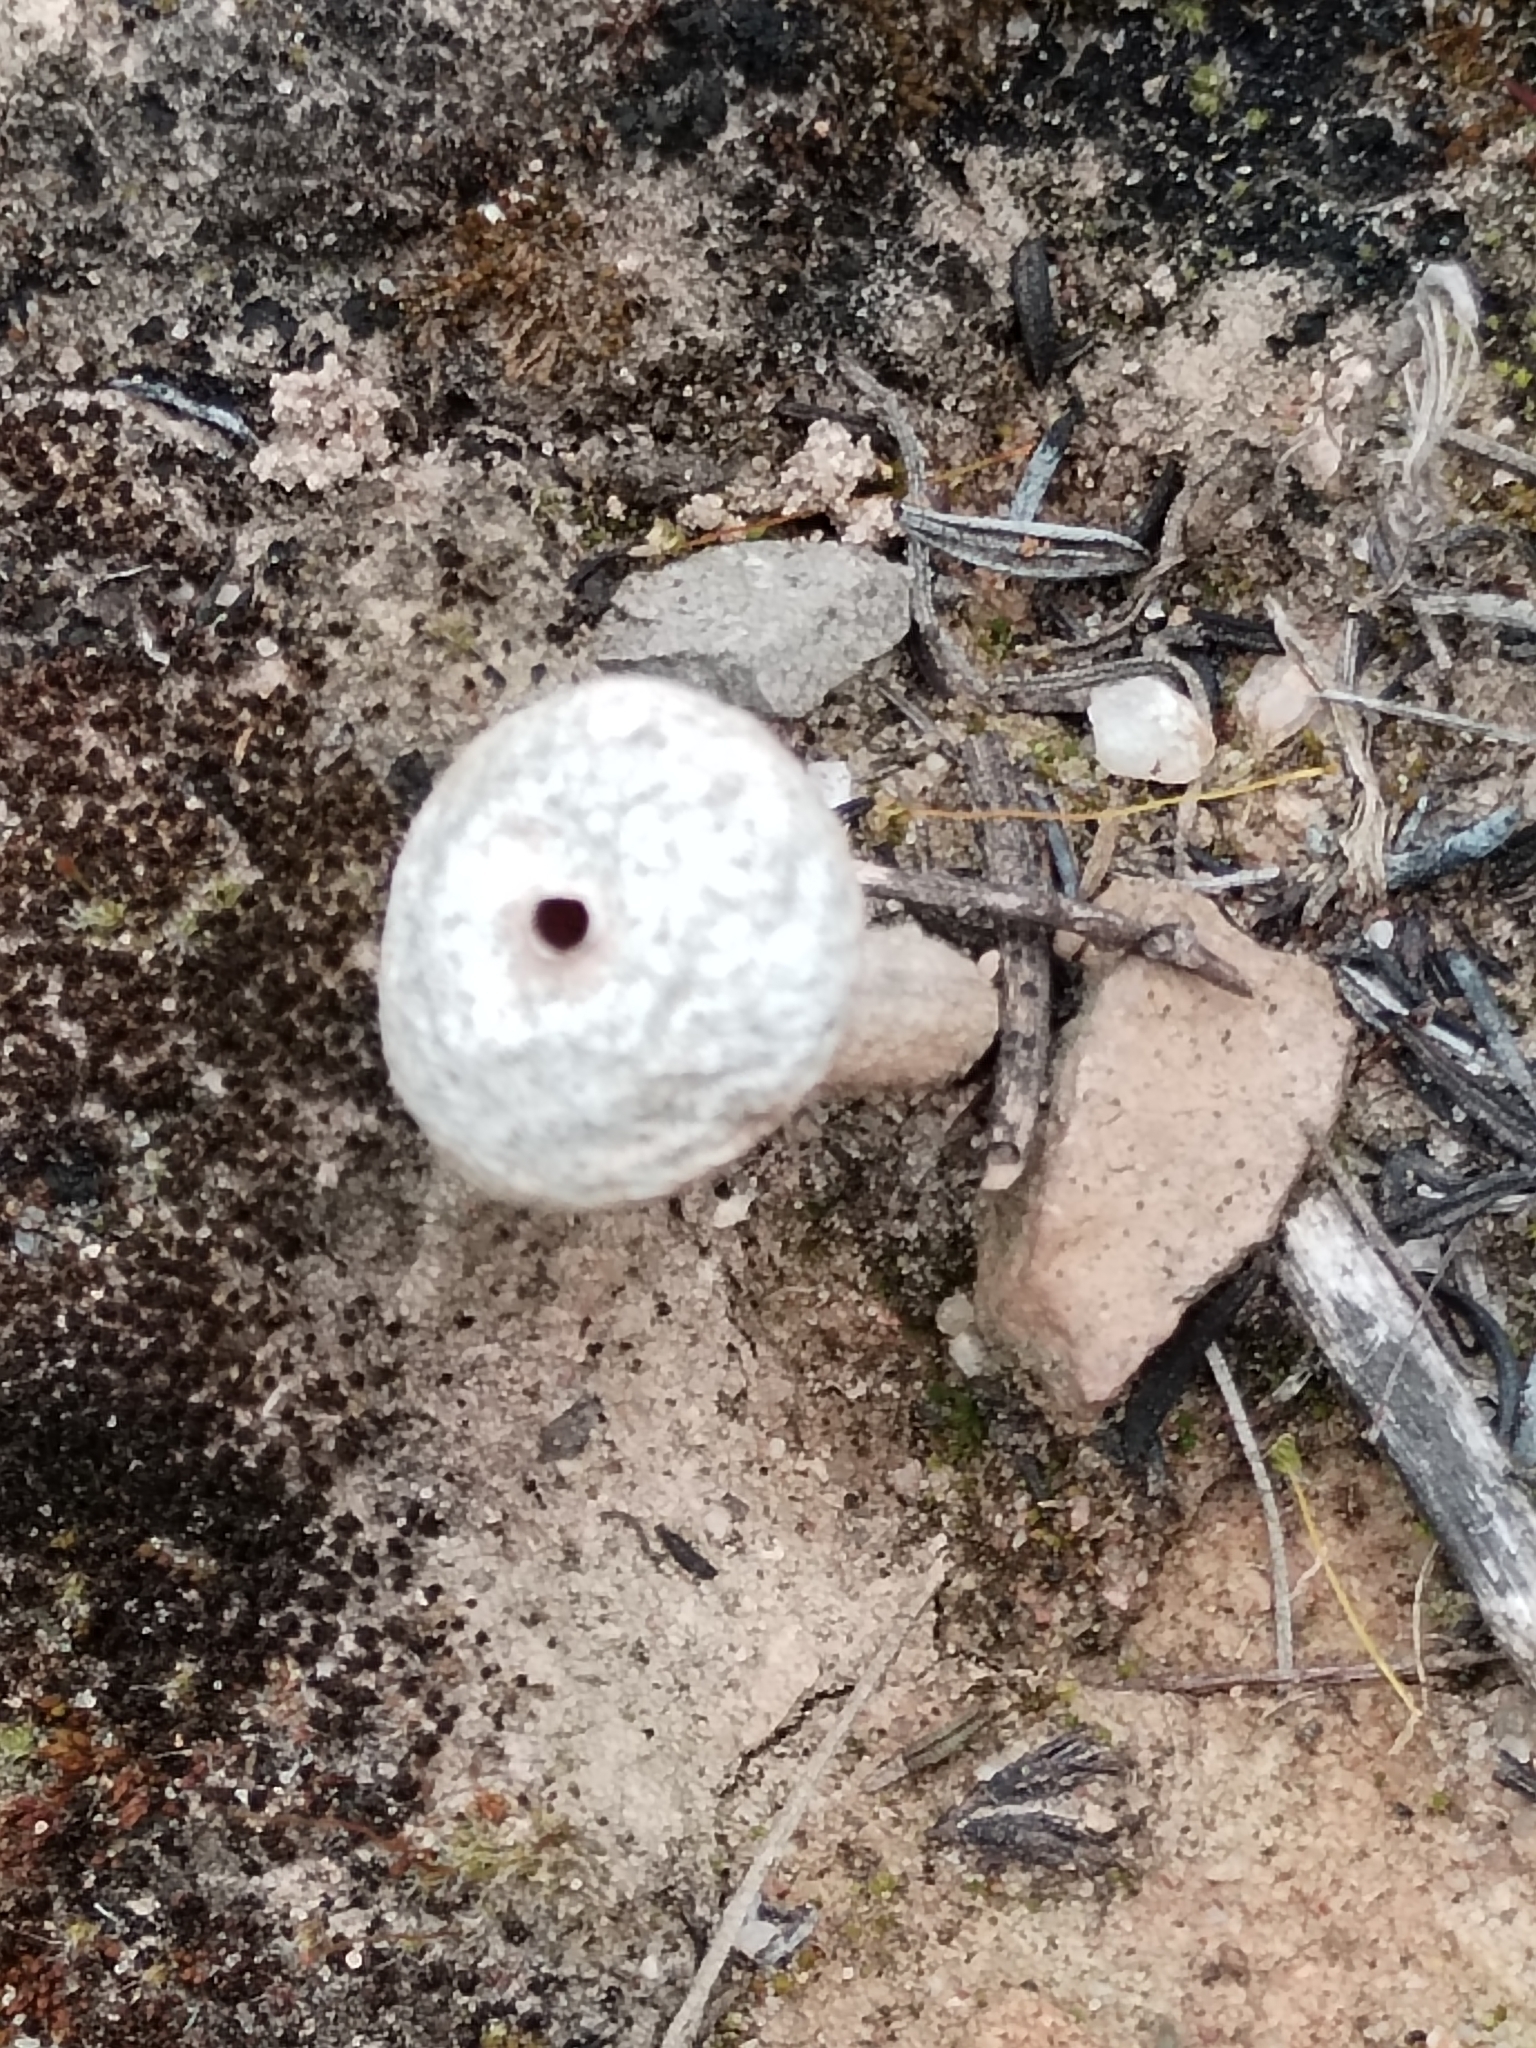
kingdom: Fungi
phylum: Basidiomycota
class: Agaricomycetes
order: Agaricales
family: Agaricaceae
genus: Tulostoma
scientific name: Tulostoma brumale
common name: Winter stalk puffball
